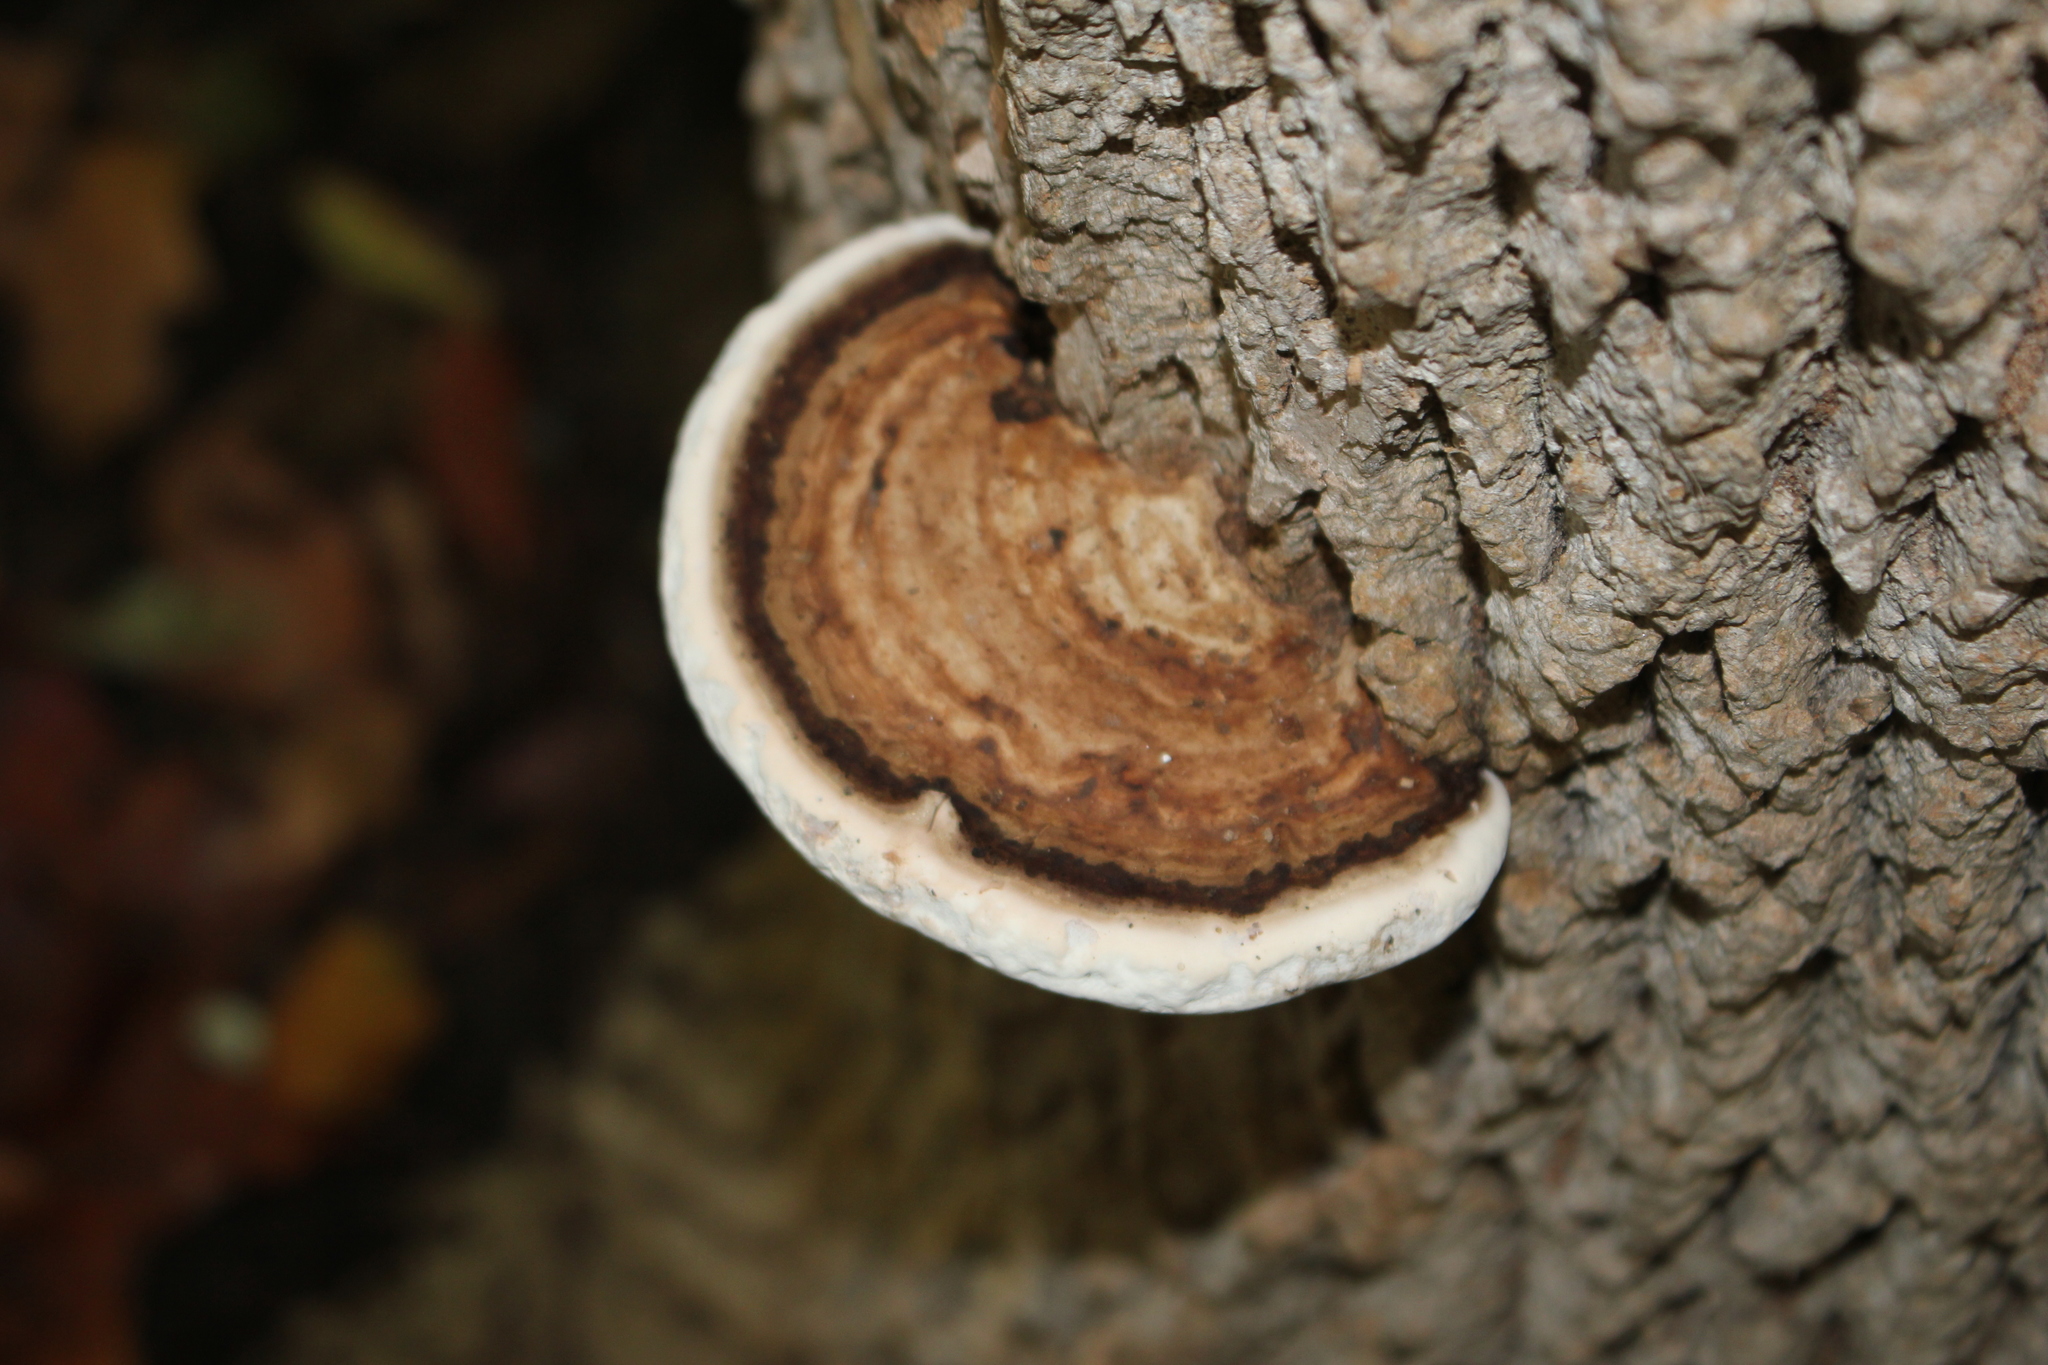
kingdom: Fungi
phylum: Basidiomycota
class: Agaricomycetes
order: Polyporales
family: Polyporaceae
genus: Ganoderma
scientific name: Ganoderma applanatum
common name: Artist's bracket
